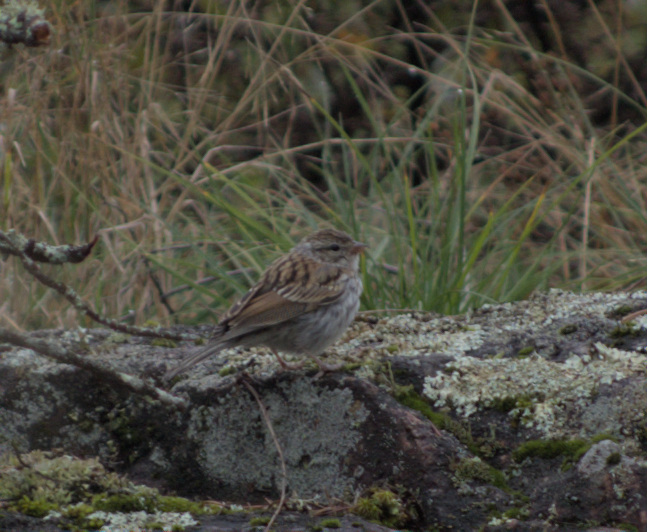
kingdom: Animalia
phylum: Chordata
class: Aves
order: Passeriformes
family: Passerellidae
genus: Spizella
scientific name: Spizella passerina
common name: Chipping sparrow
